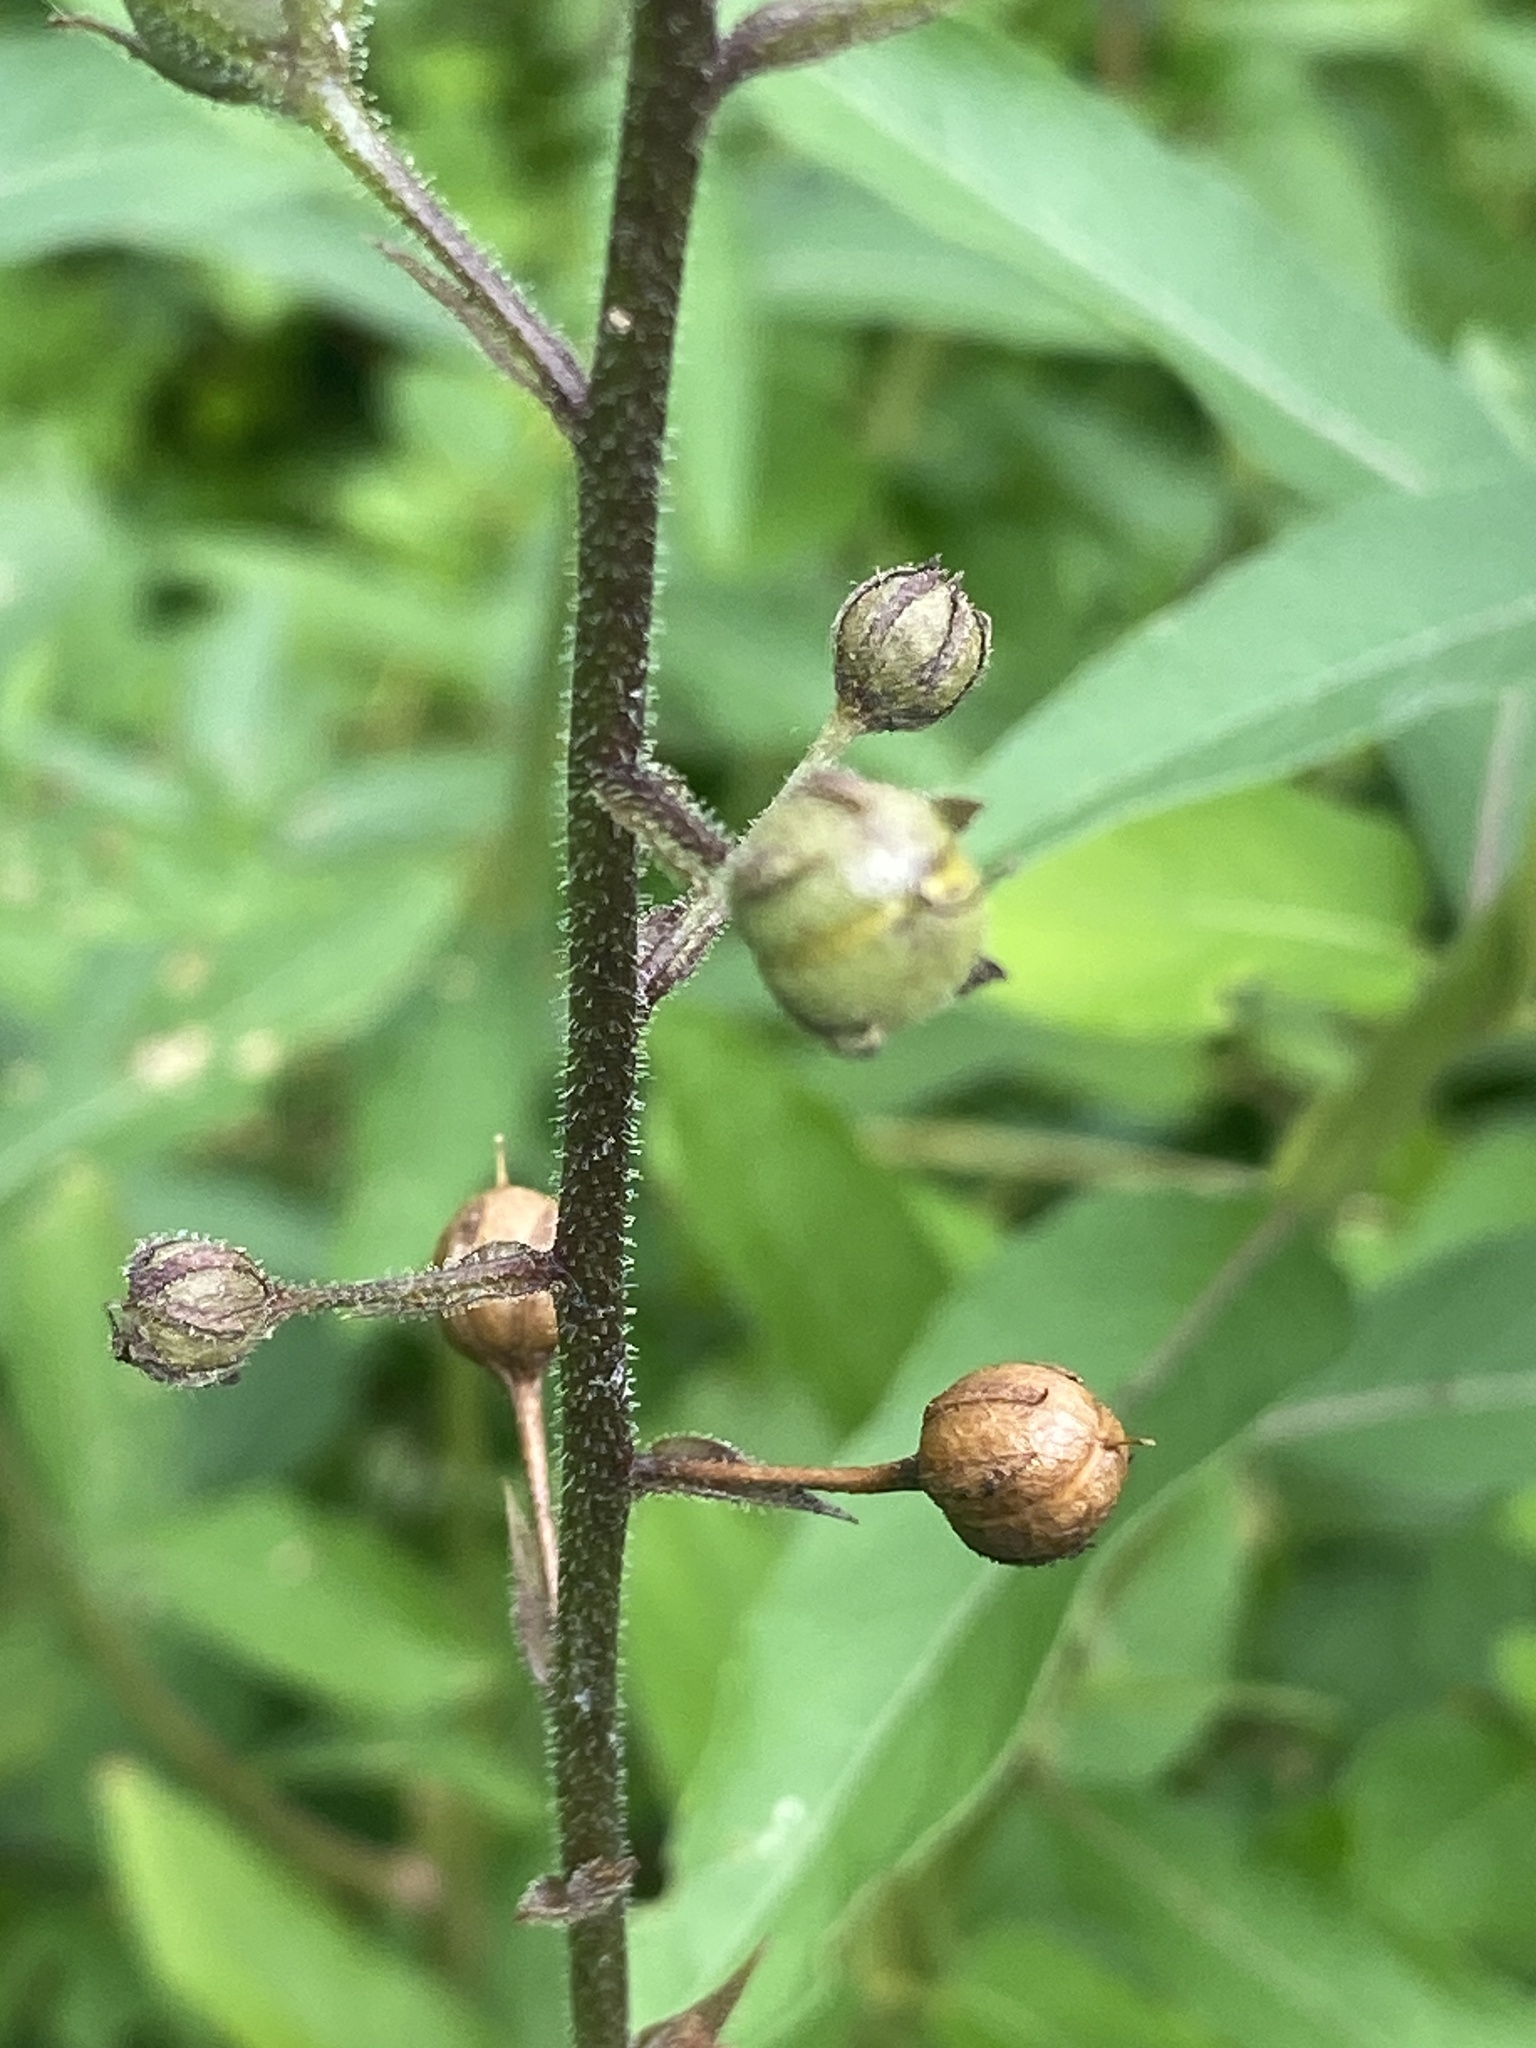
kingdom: Plantae
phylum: Tracheophyta
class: Magnoliopsida
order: Lamiales
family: Scrophulariaceae
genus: Verbascum
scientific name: Verbascum blattaria
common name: Moth mullein
